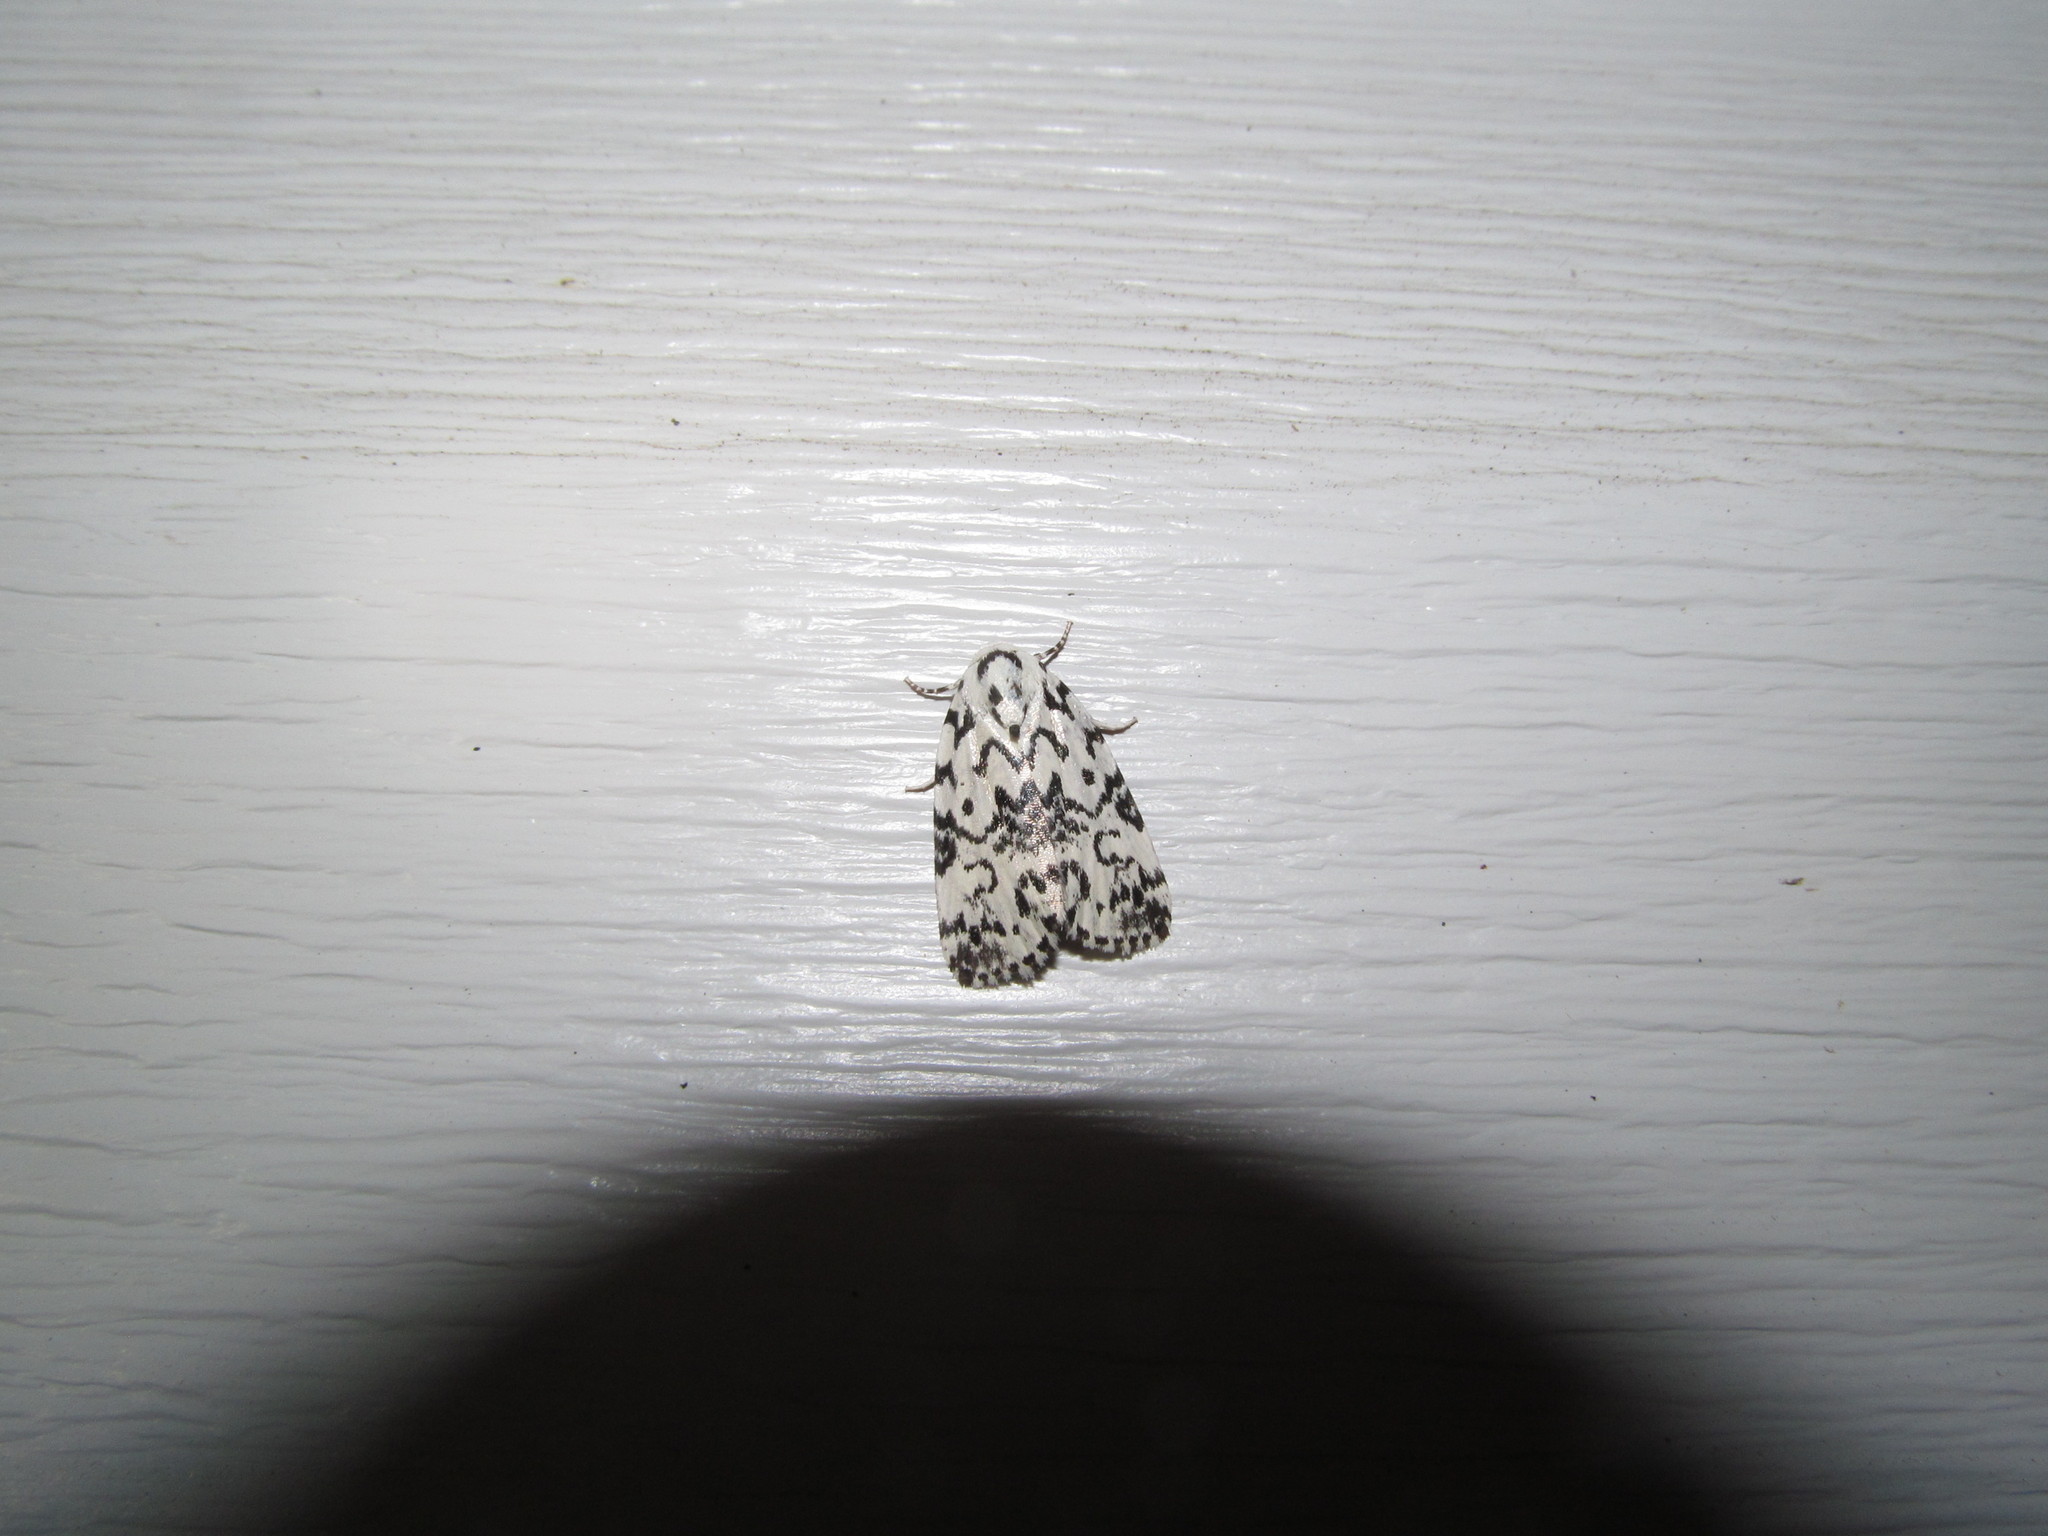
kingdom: Animalia
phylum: Arthropoda
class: Insecta
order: Lepidoptera
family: Noctuidae
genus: Polygrammate
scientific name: Polygrammate hebraeicum
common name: Hebrew moth
